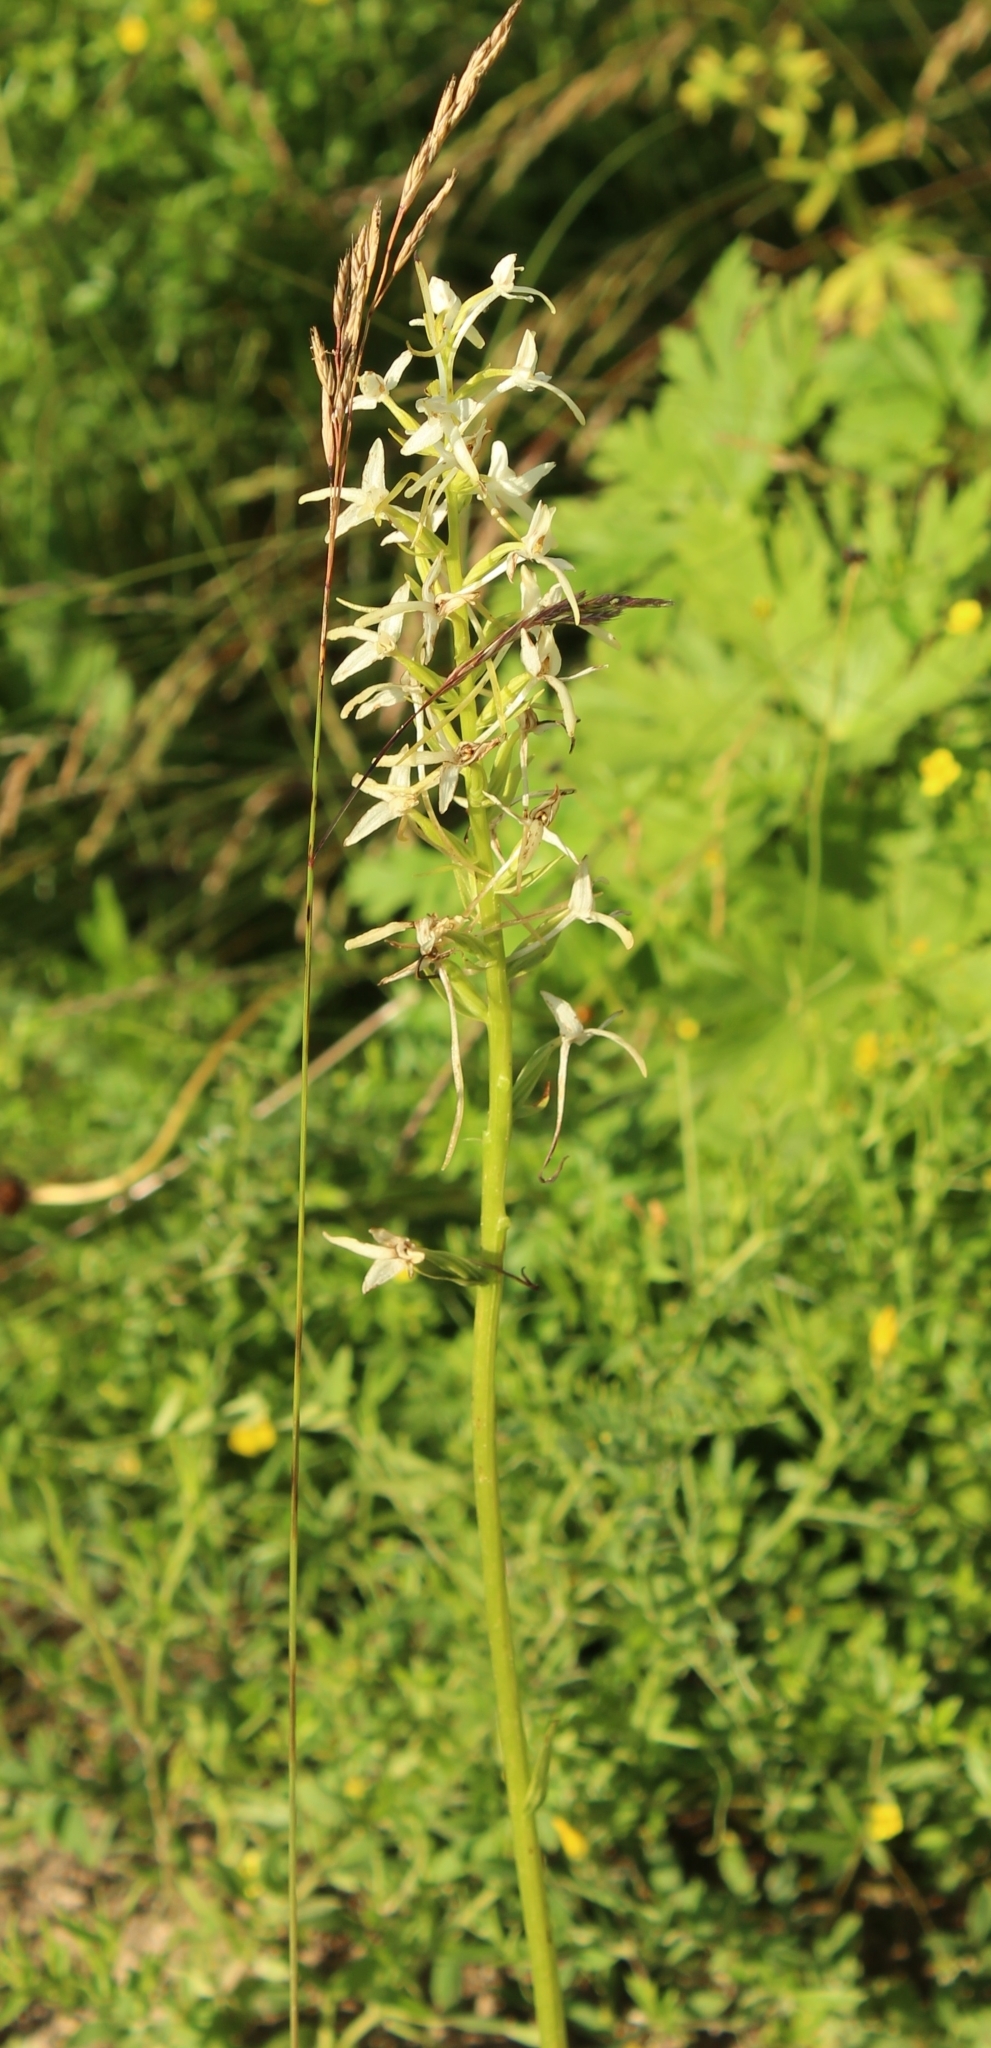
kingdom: Plantae
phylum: Tracheophyta
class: Liliopsida
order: Asparagales
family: Orchidaceae
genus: Platanthera
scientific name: Platanthera bifolia
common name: Lesser butterfly-orchid
